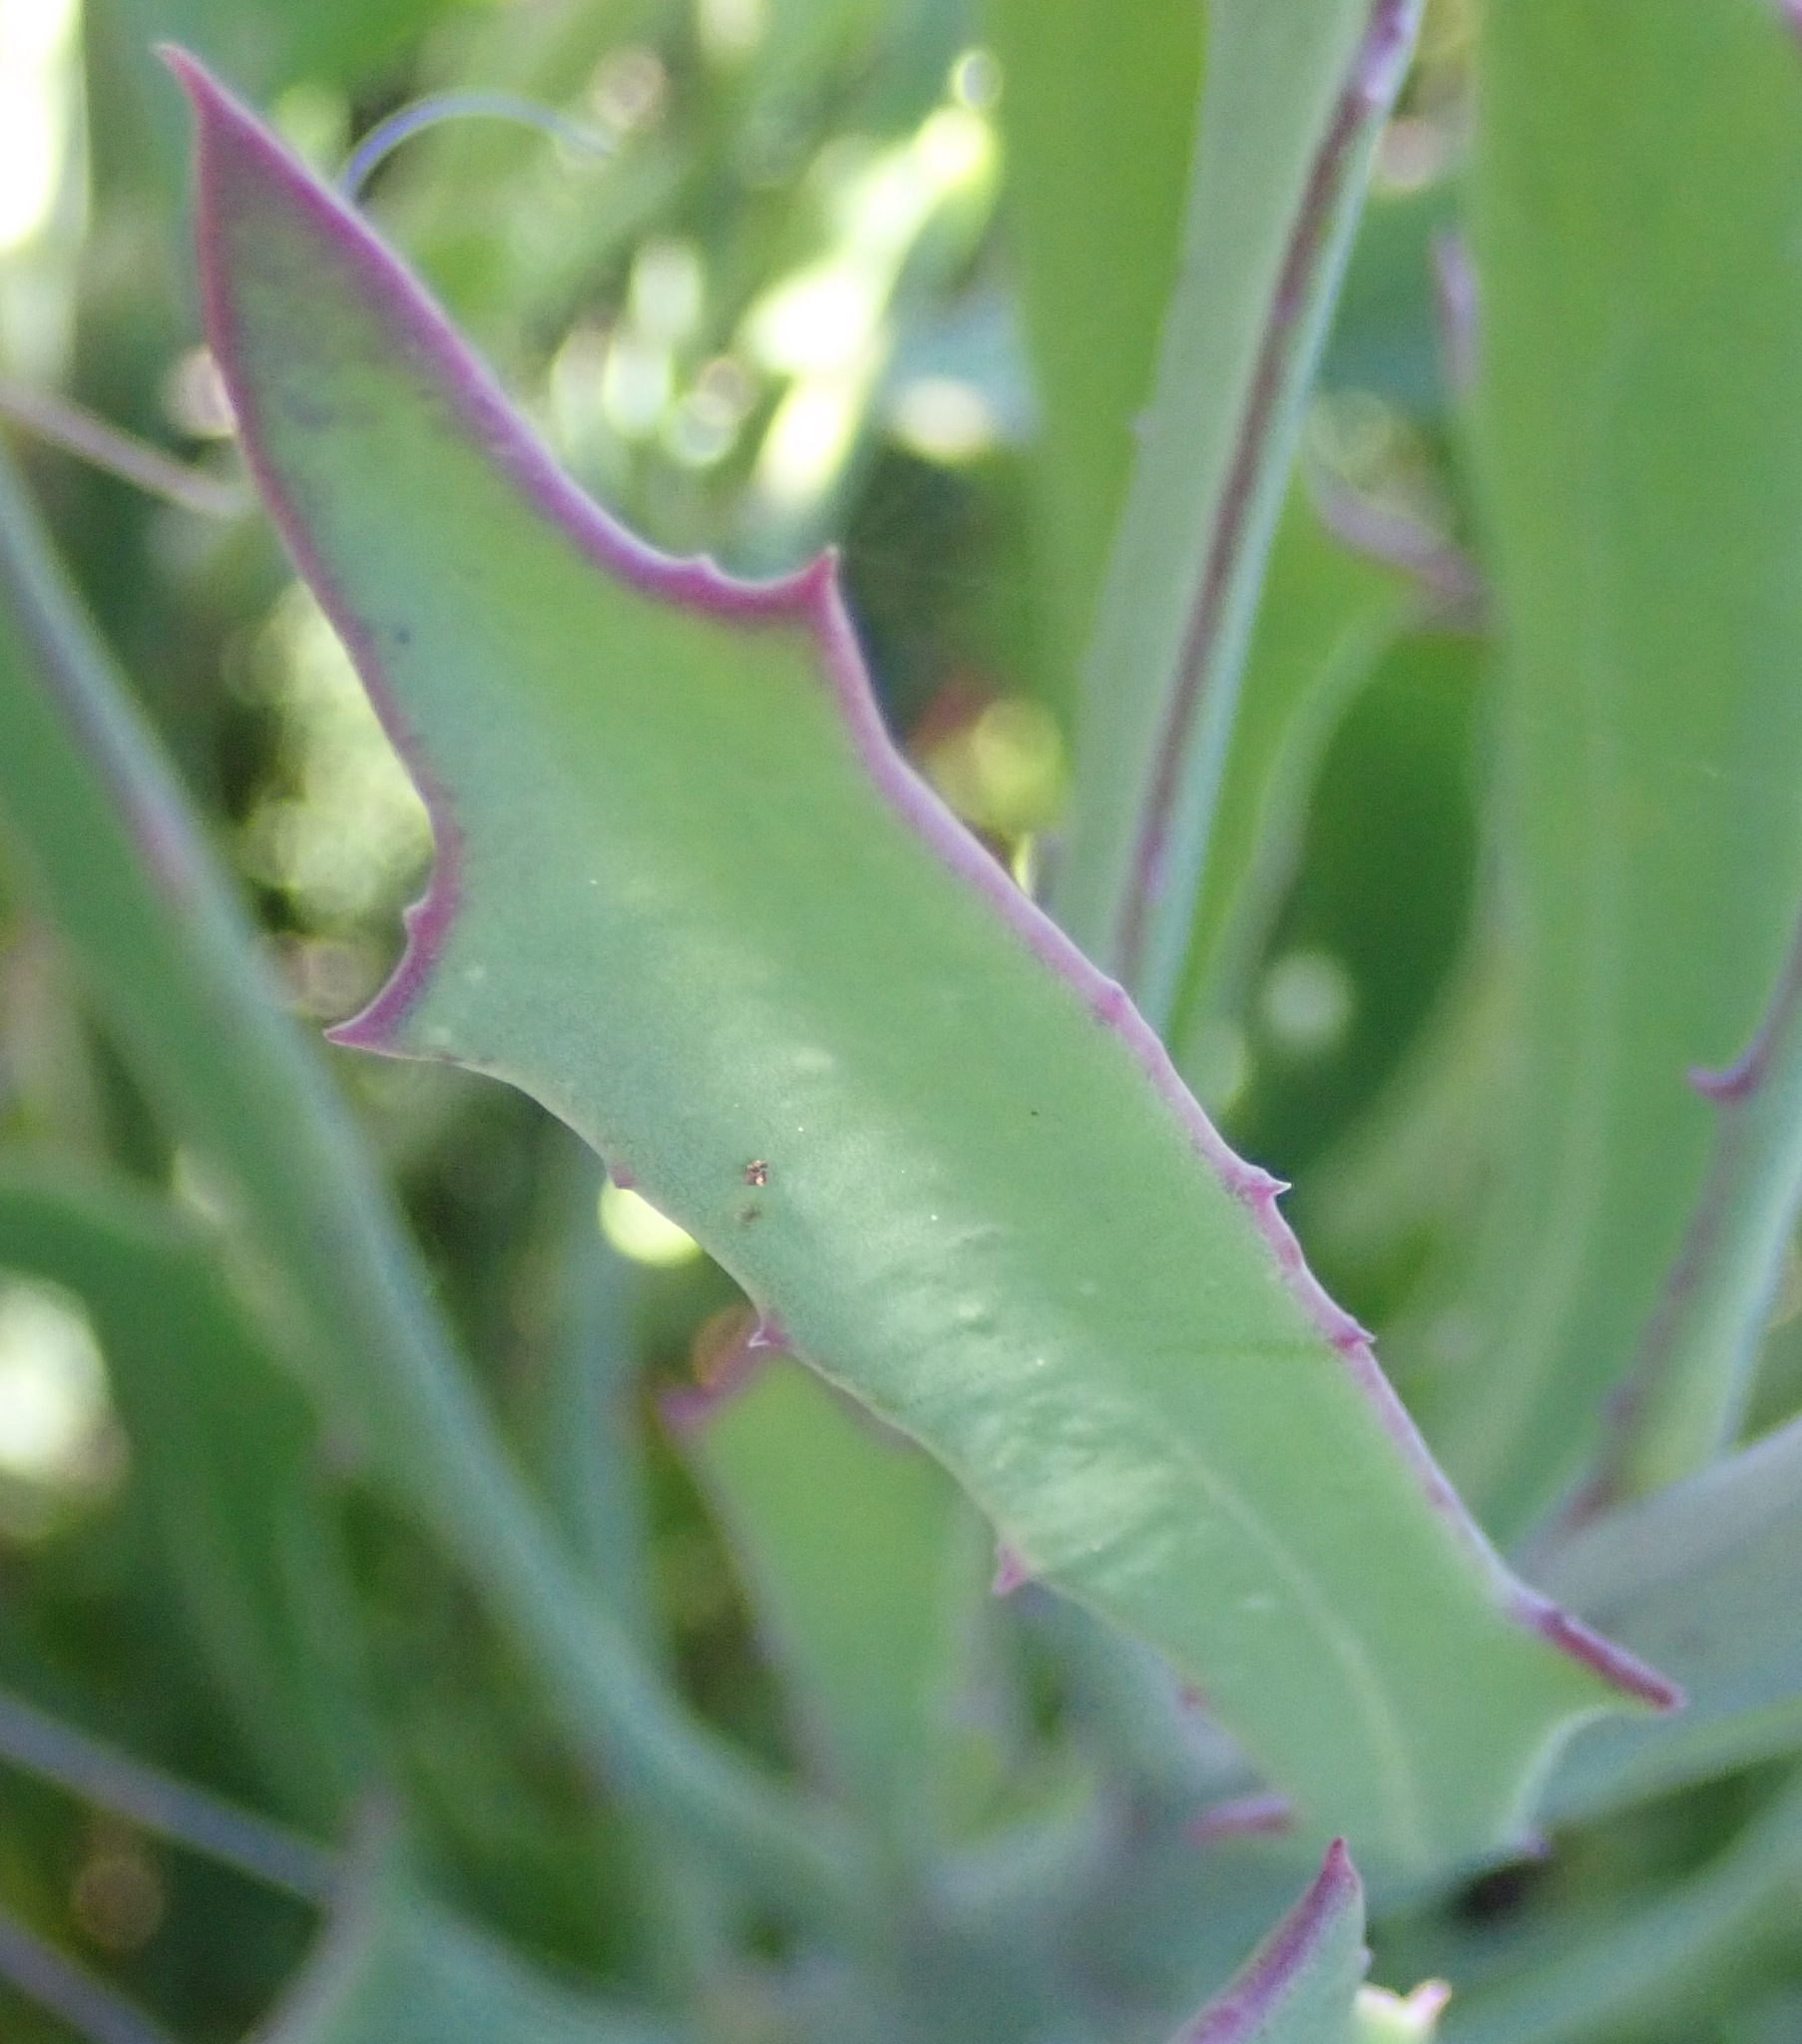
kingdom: Plantae
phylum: Tracheophyta
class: Magnoliopsida
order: Asterales
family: Asteraceae
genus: Othonna
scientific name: Othonna quinquedentata
